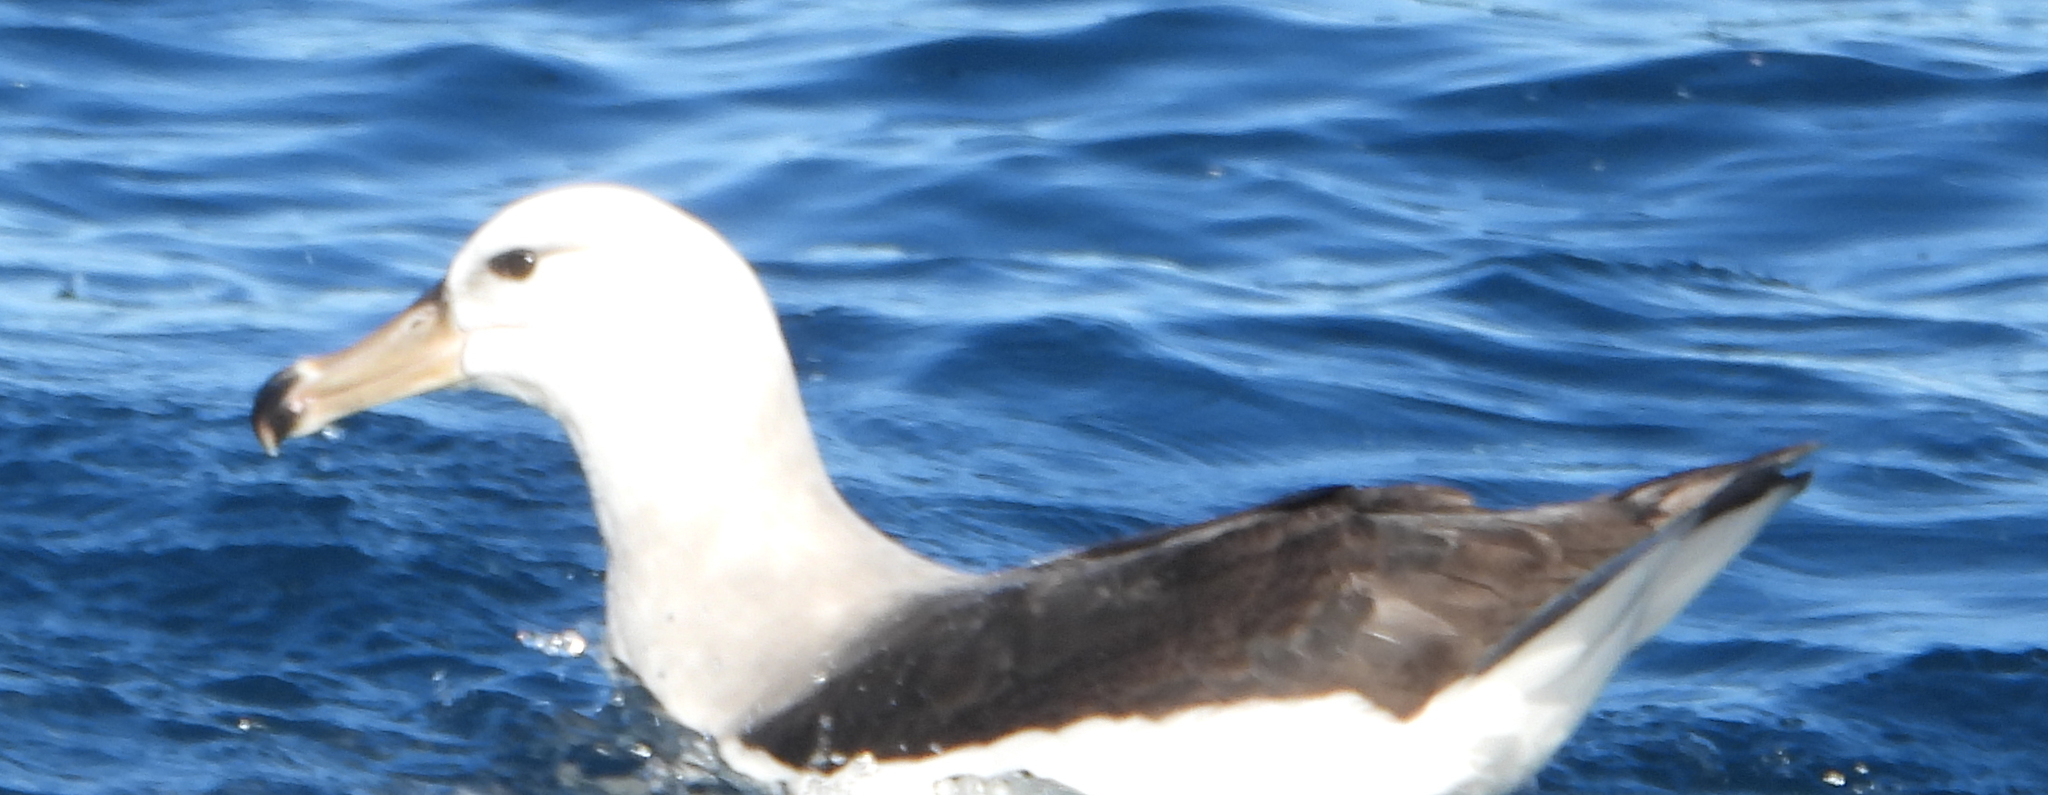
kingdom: Animalia
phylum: Chordata
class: Aves
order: Procellariiformes
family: Diomedeidae
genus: Thalassarche
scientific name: Thalassarche melanophris
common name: Black-browed albatross
